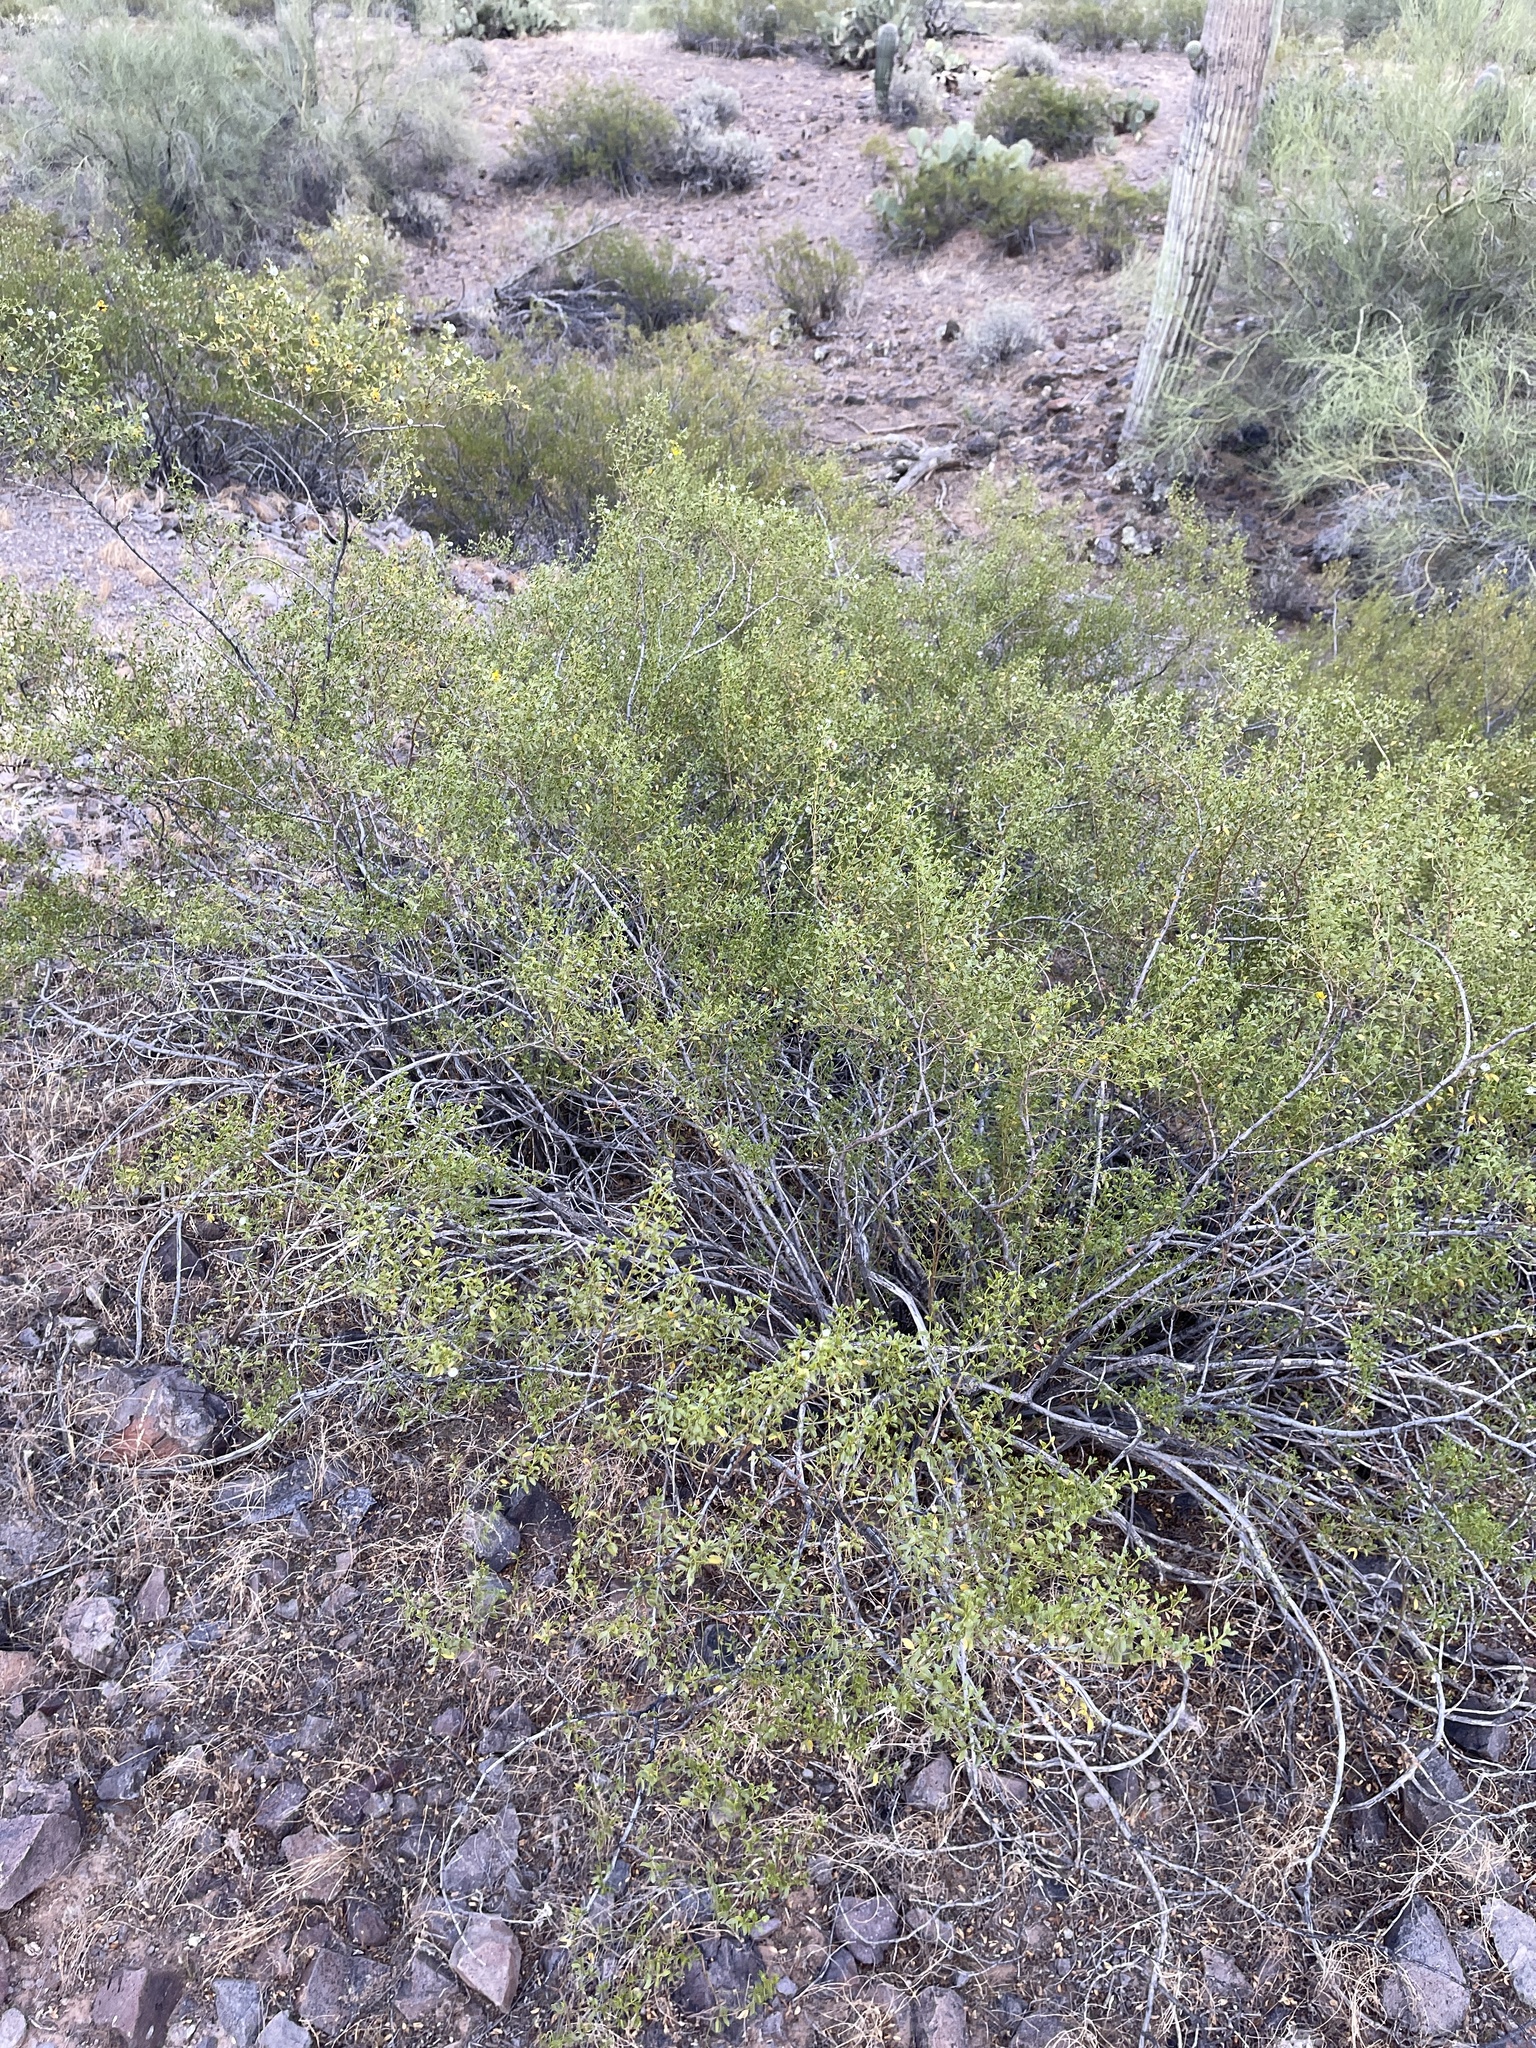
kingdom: Plantae
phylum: Tracheophyta
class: Magnoliopsida
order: Zygophyllales
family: Zygophyllaceae
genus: Larrea
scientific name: Larrea tridentata
